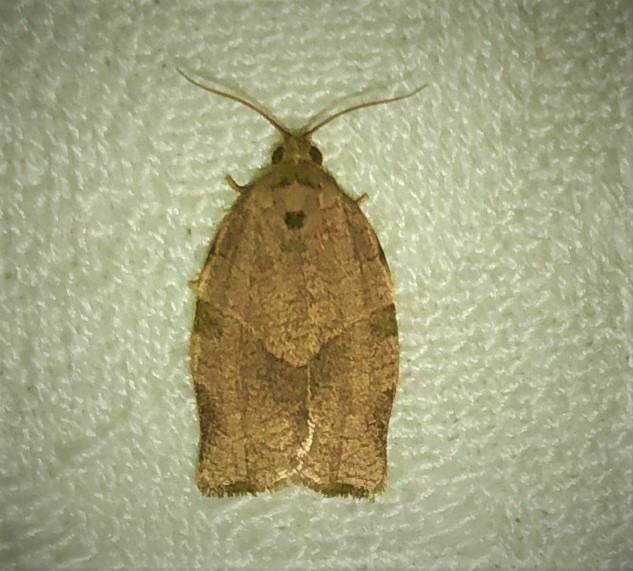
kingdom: Animalia
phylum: Arthropoda
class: Insecta
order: Lepidoptera
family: Tortricidae
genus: Choristoneura
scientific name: Choristoneura rosaceana
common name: Oblique-banded leafroller moth
